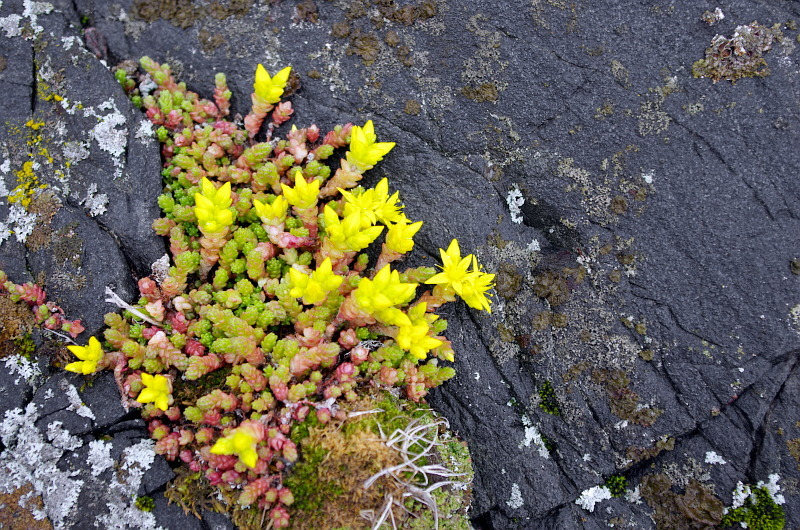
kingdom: Plantae
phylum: Tracheophyta
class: Magnoliopsida
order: Saxifragales
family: Crassulaceae
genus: Sedum
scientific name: Sedum acre
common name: Biting stonecrop
